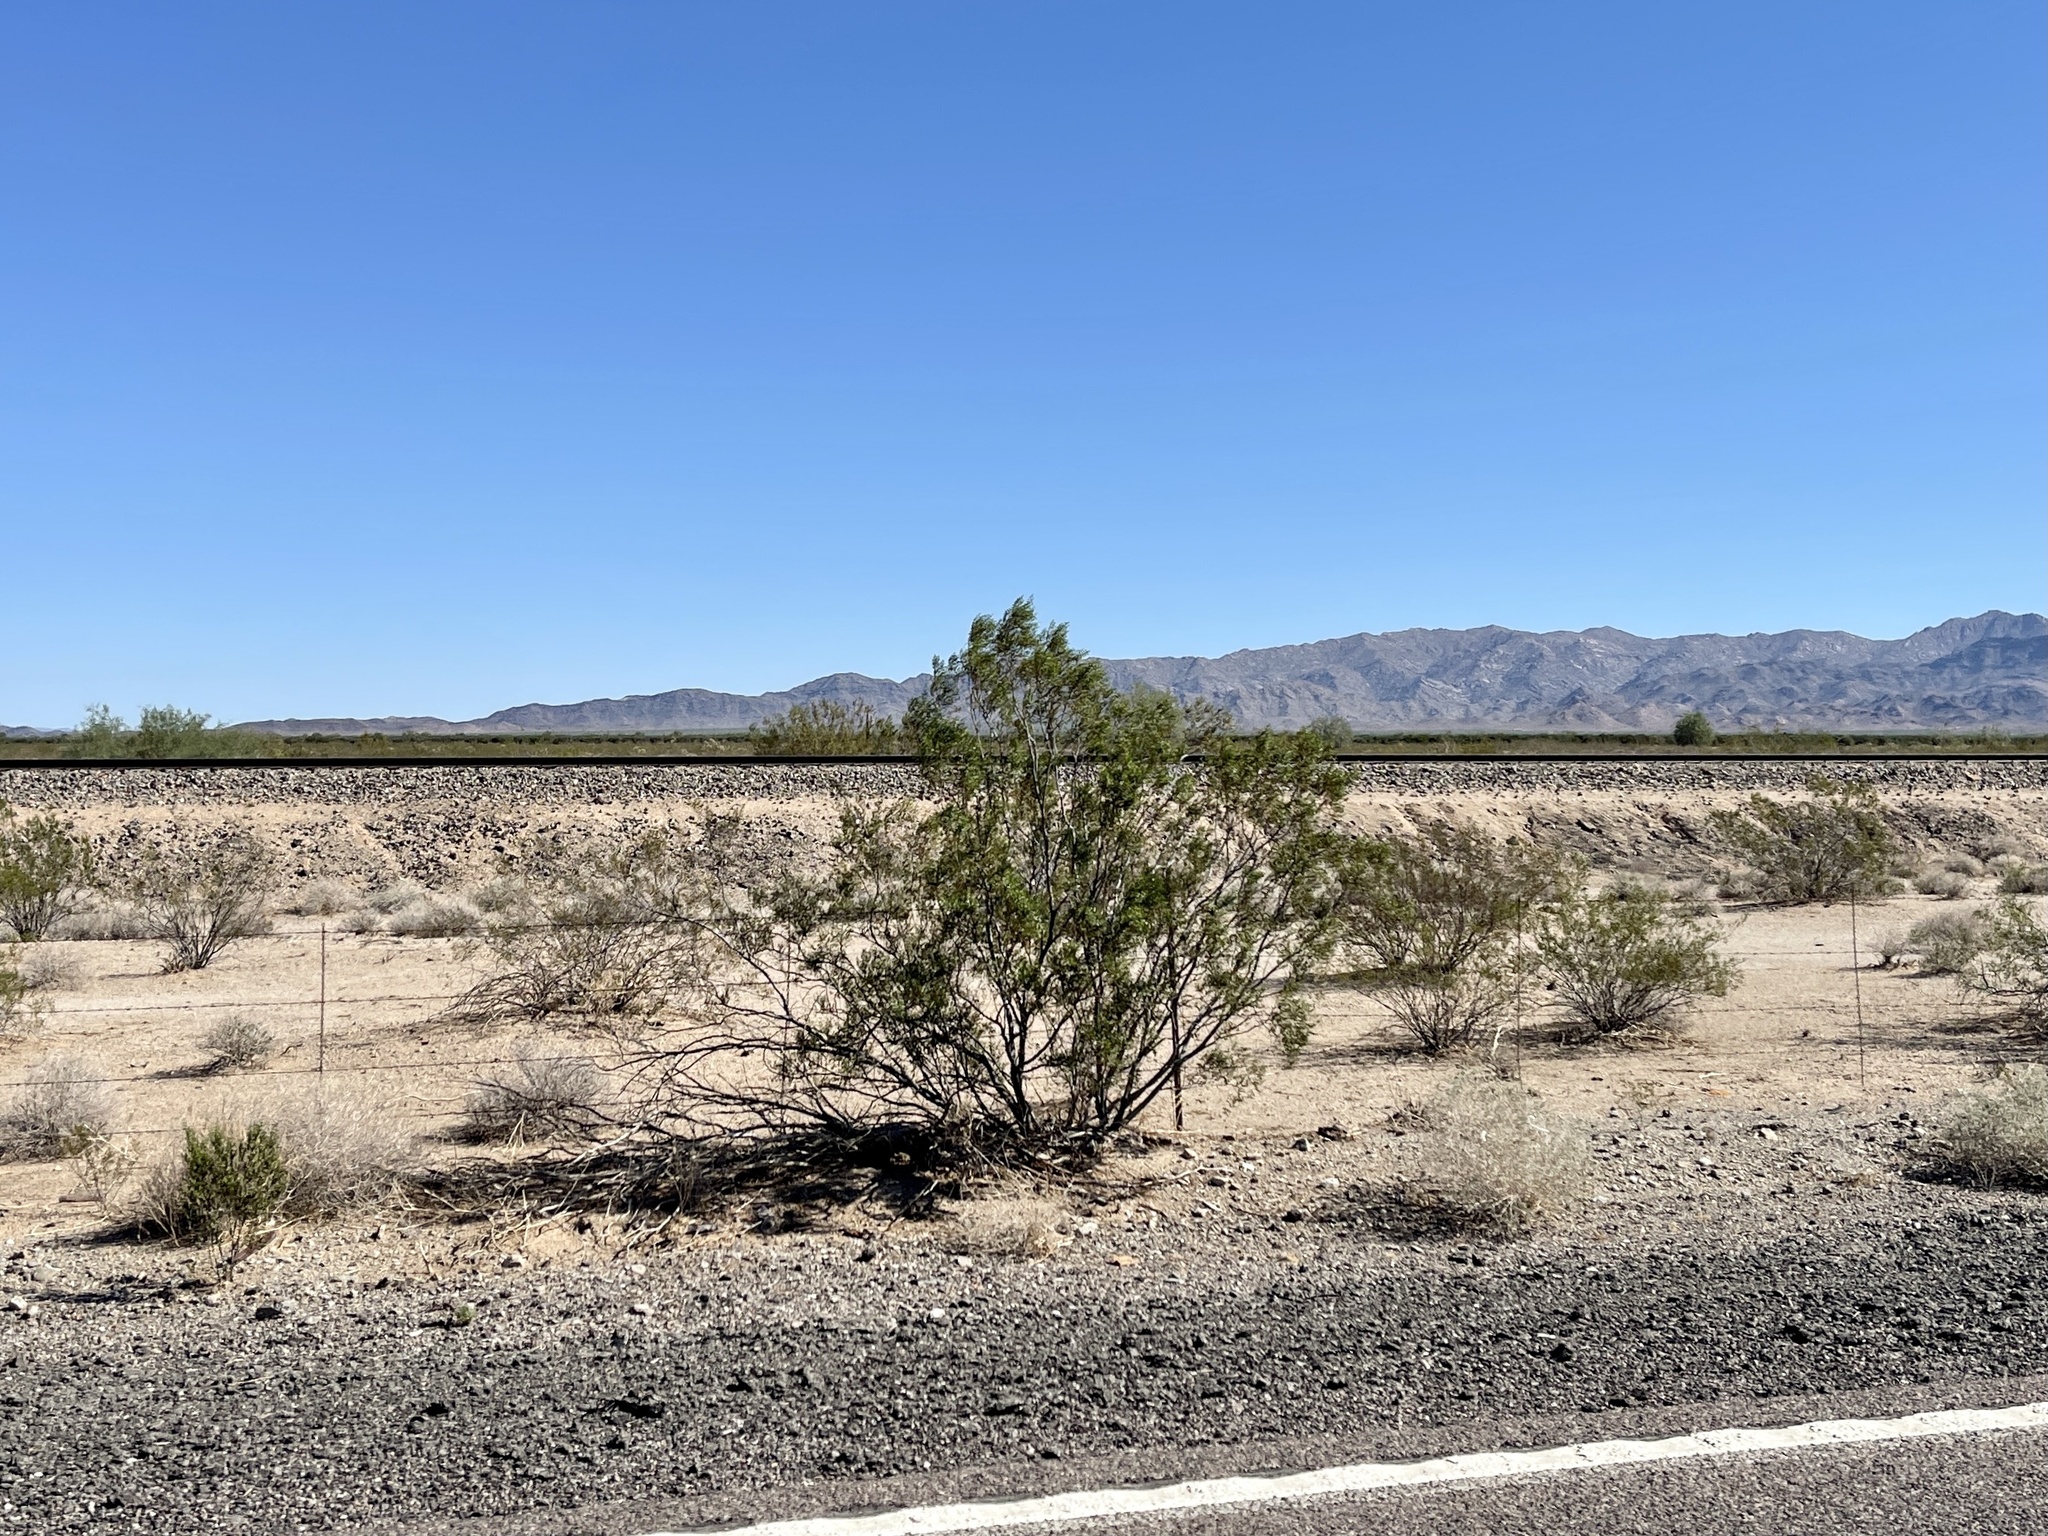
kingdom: Plantae
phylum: Tracheophyta
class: Magnoliopsida
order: Zygophyllales
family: Zygophyllaceae
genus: Larrea
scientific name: Larrea tridentata
